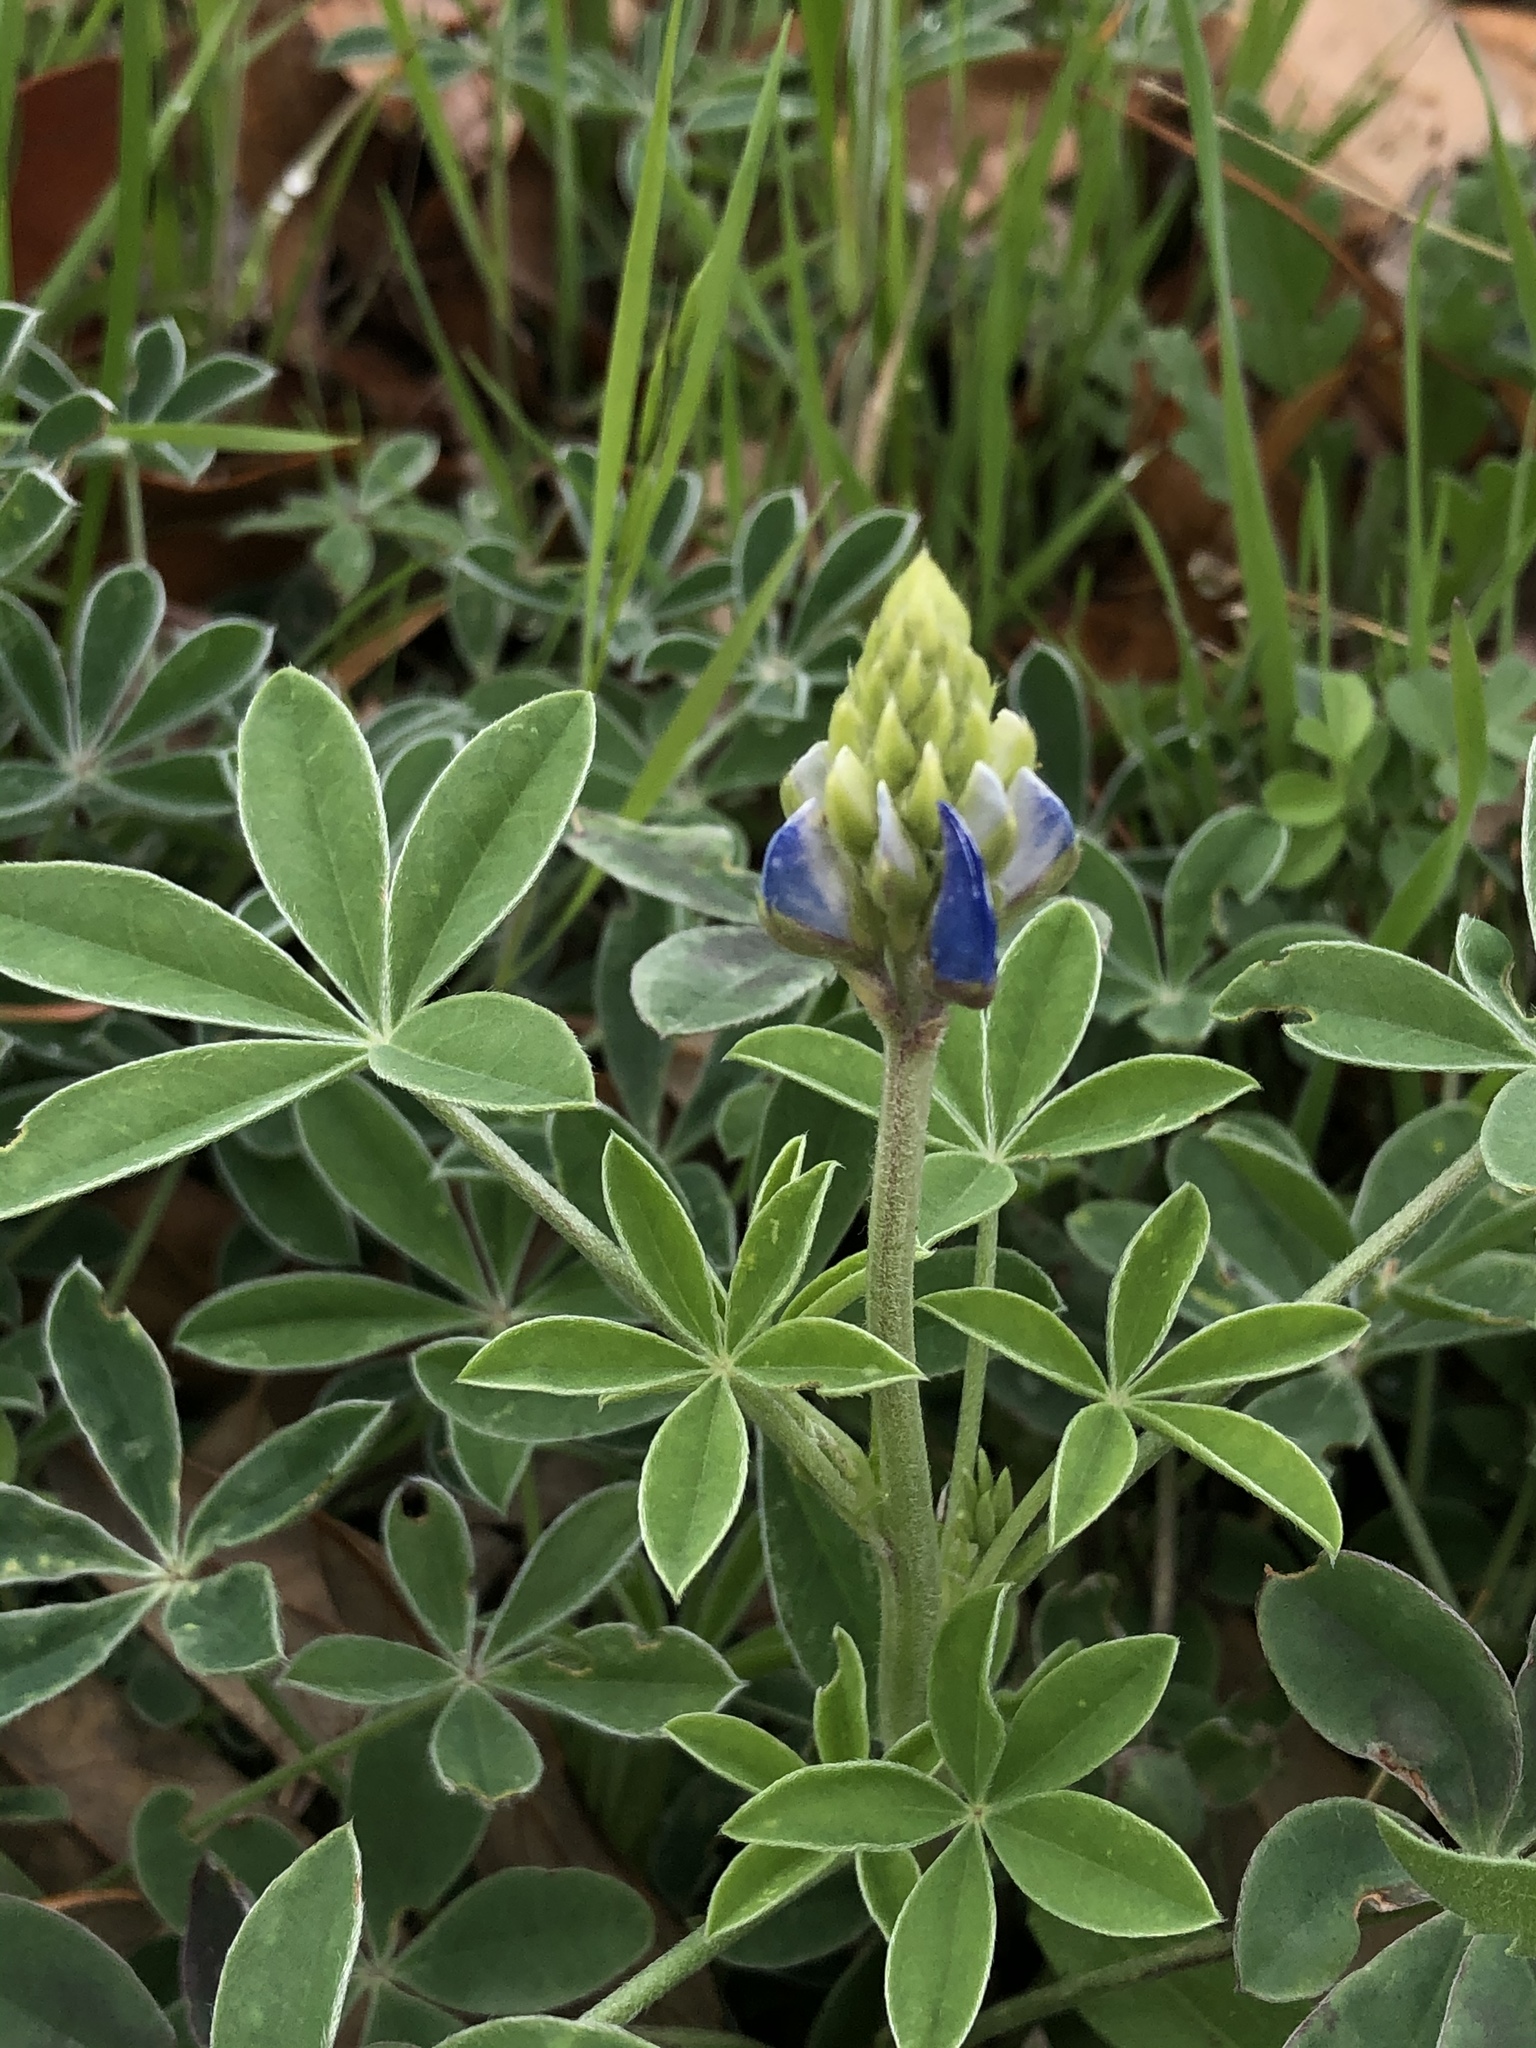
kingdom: Plantae
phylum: Tracheophyta
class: Magnoliopsida
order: Fabales
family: Fabaceae
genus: Lupinus
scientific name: Lupinus texensis
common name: Texas bluebonnet
